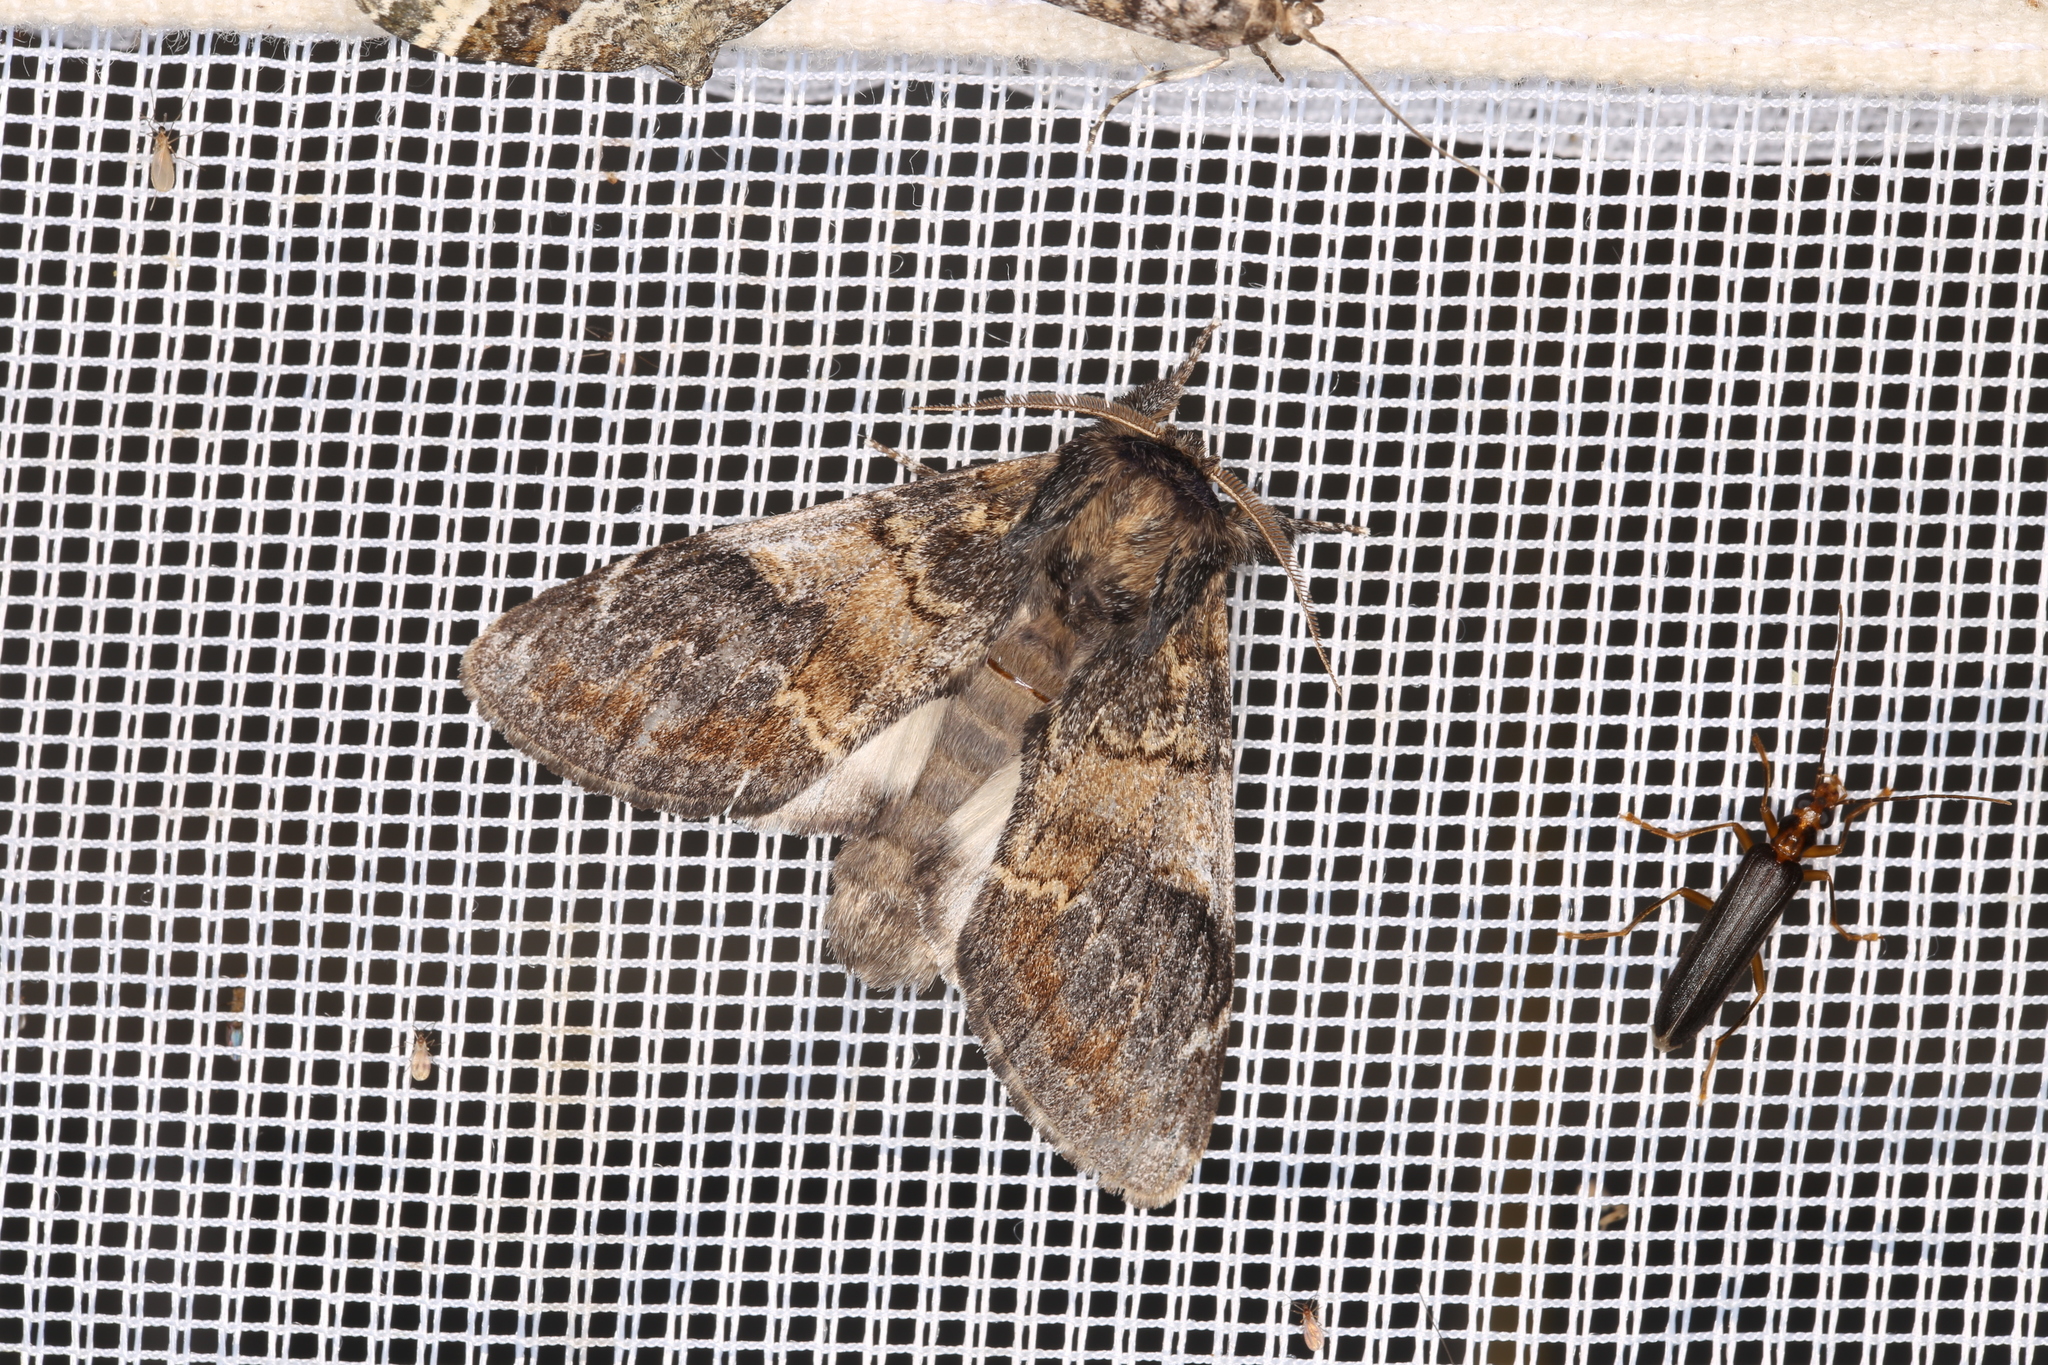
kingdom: Animalia
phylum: Arthropoda
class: Insecta
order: Lepidoptera
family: Notodontidae
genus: Notodonta
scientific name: Notodonta tritophus
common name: Three-humped prominent
